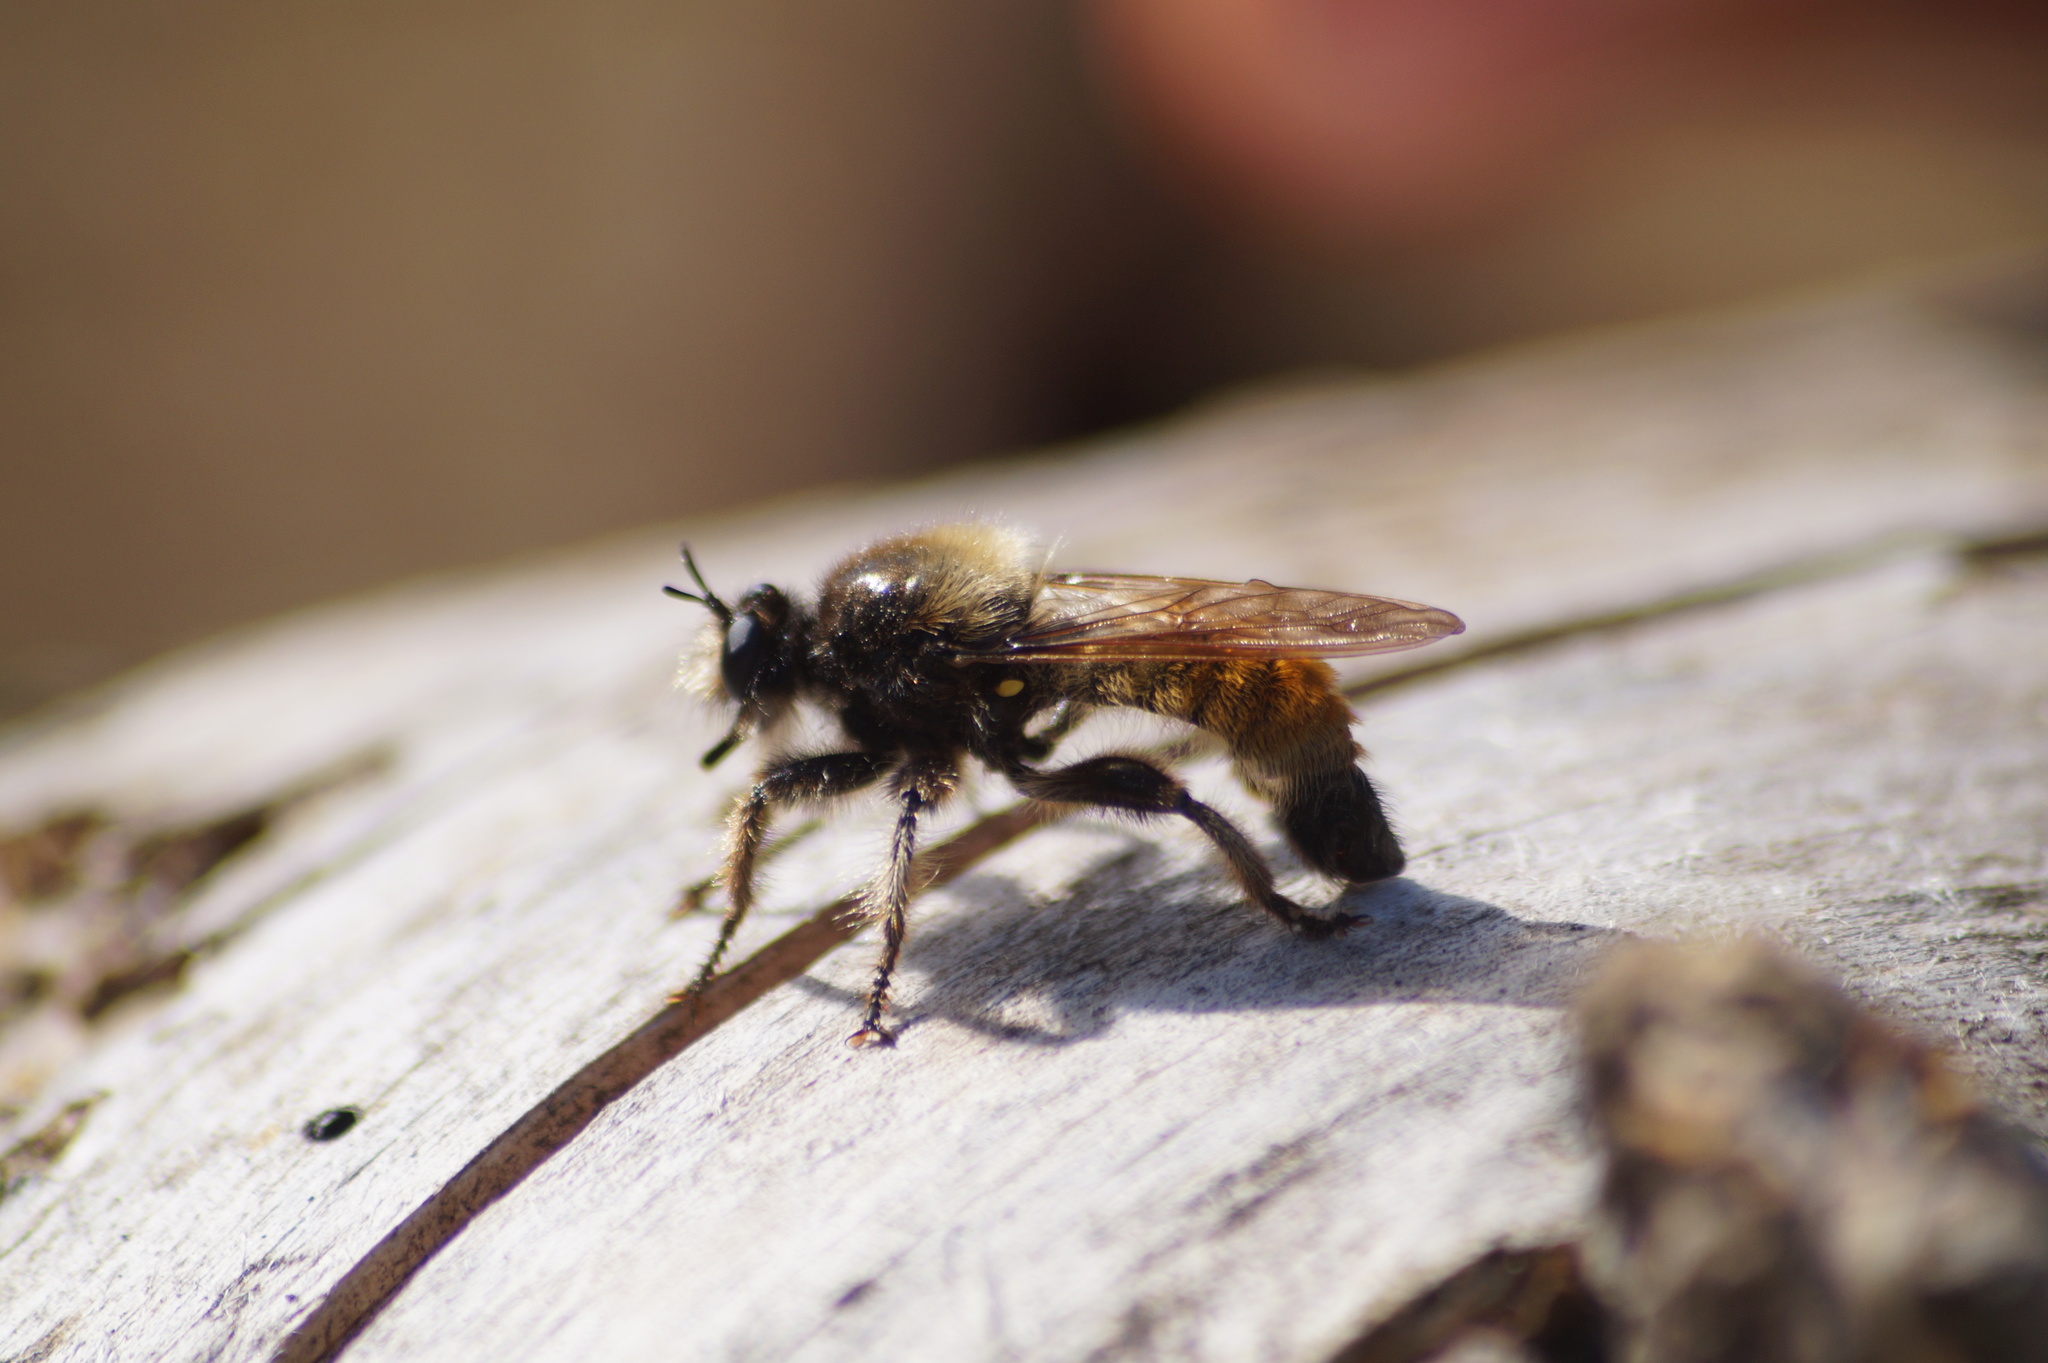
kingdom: Animalia
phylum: Arthropoda
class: Insecta
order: Diptera
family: Asilidae
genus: Laphria
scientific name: Laphria flava
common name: Bumblebee robberfly
